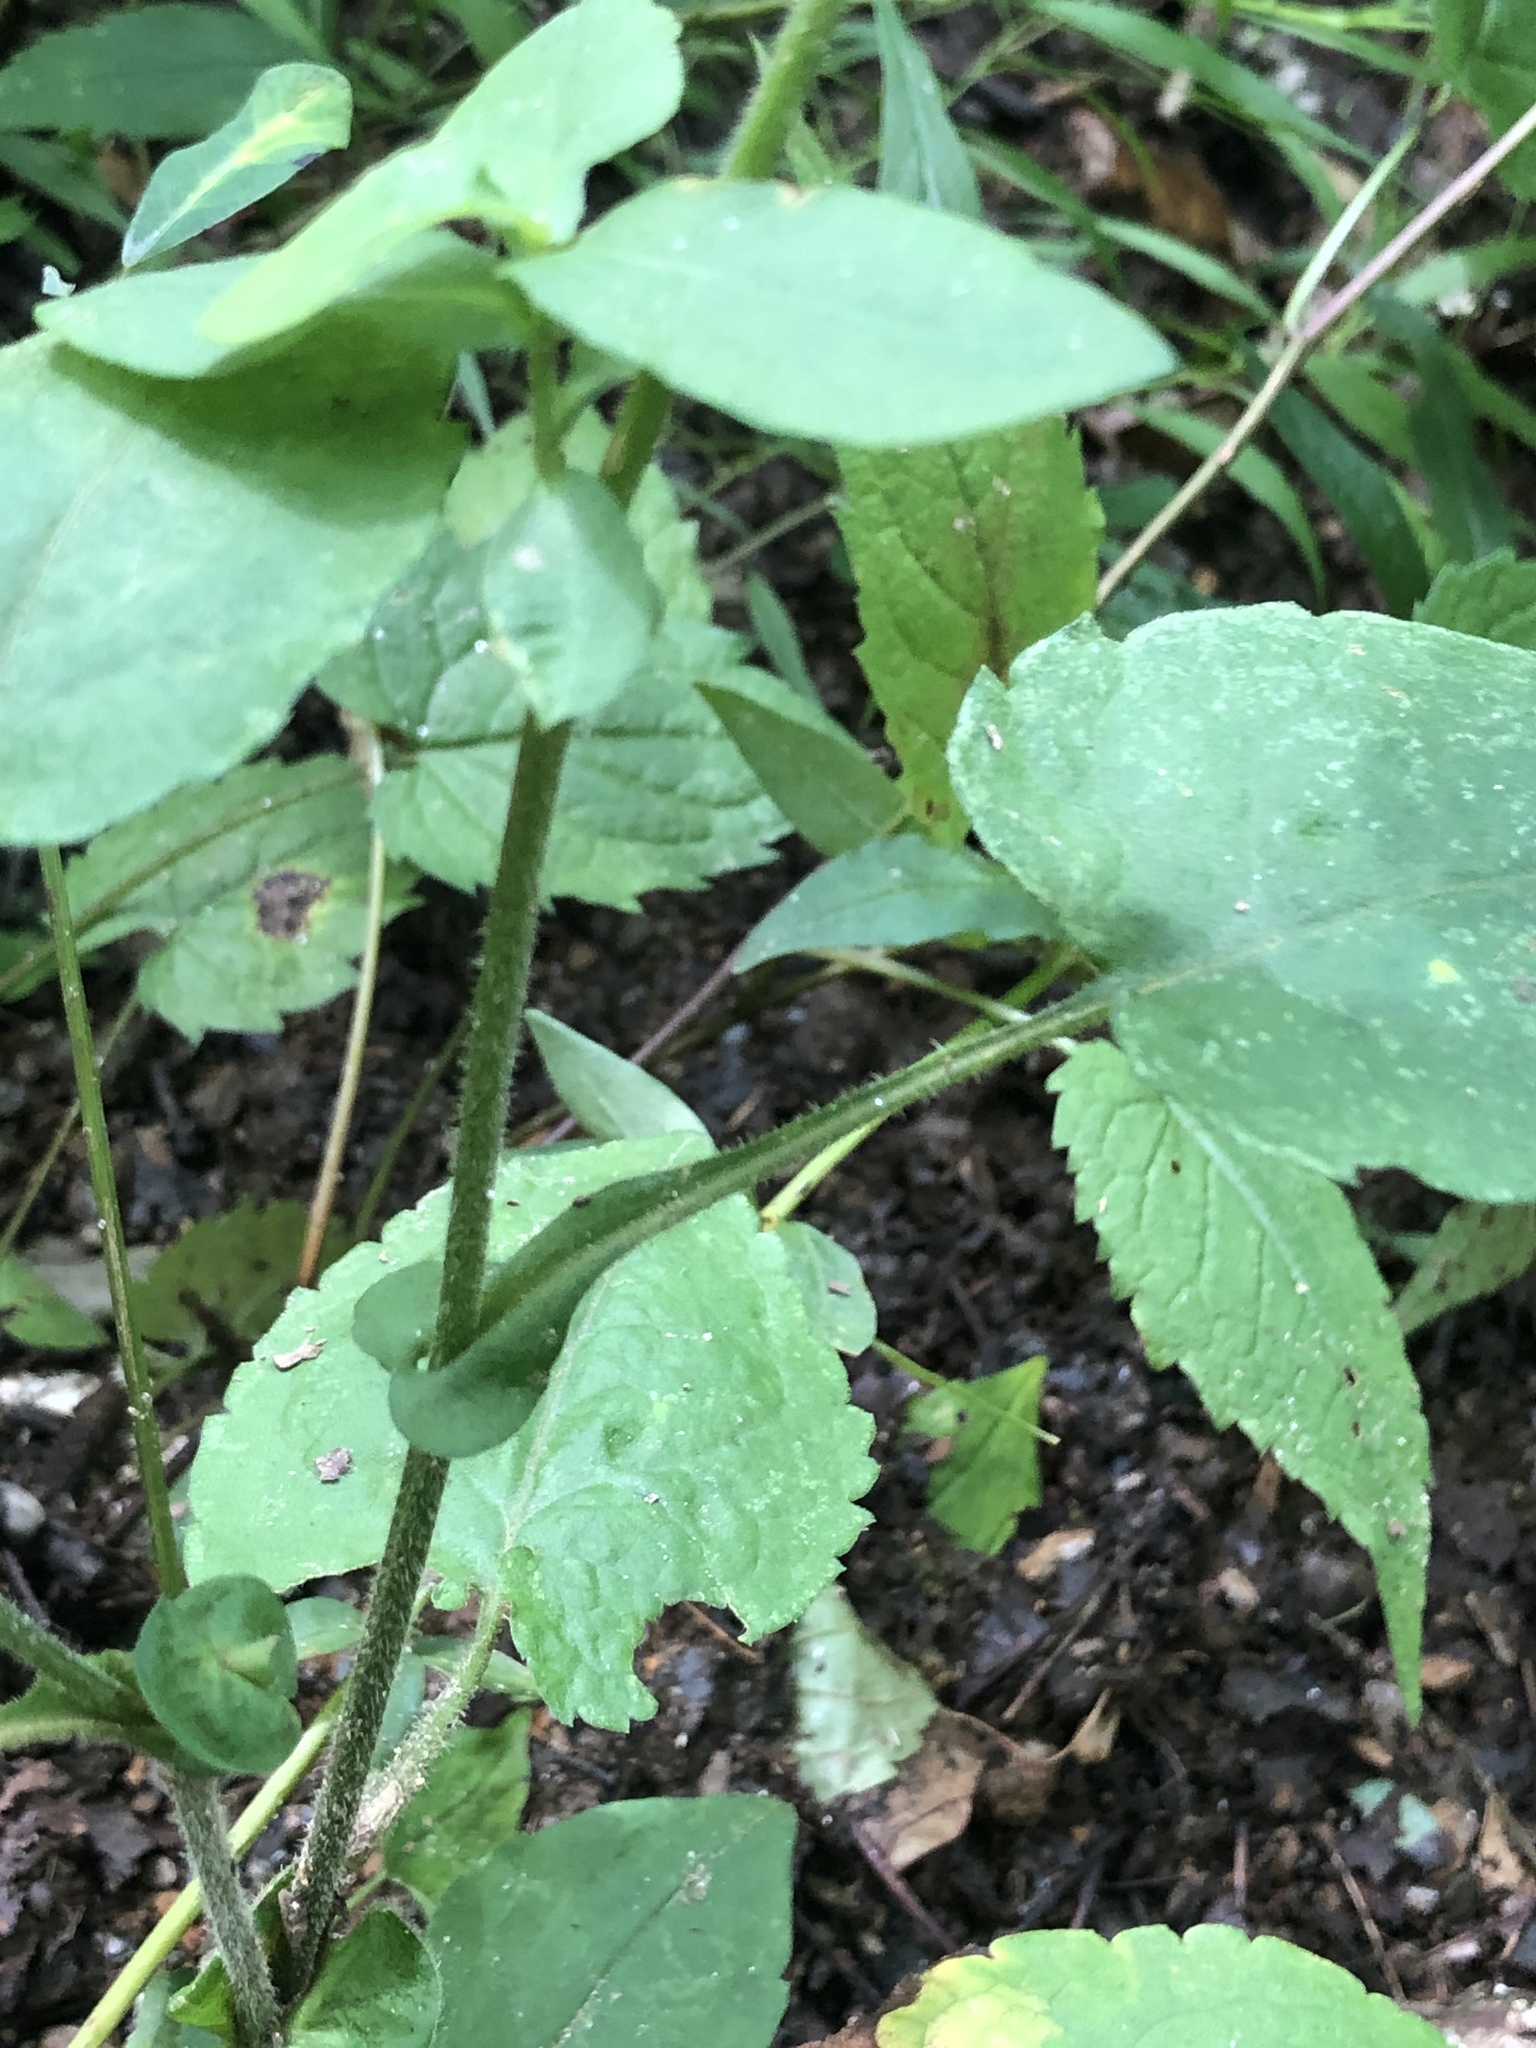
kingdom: Plantae
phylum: Tracheophyta
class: Magnoliopsida
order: Asterales
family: Asteraceae
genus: Symphyotrichum
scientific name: Symphyotrichum undulatum
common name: Clasping heart-leaf aster
